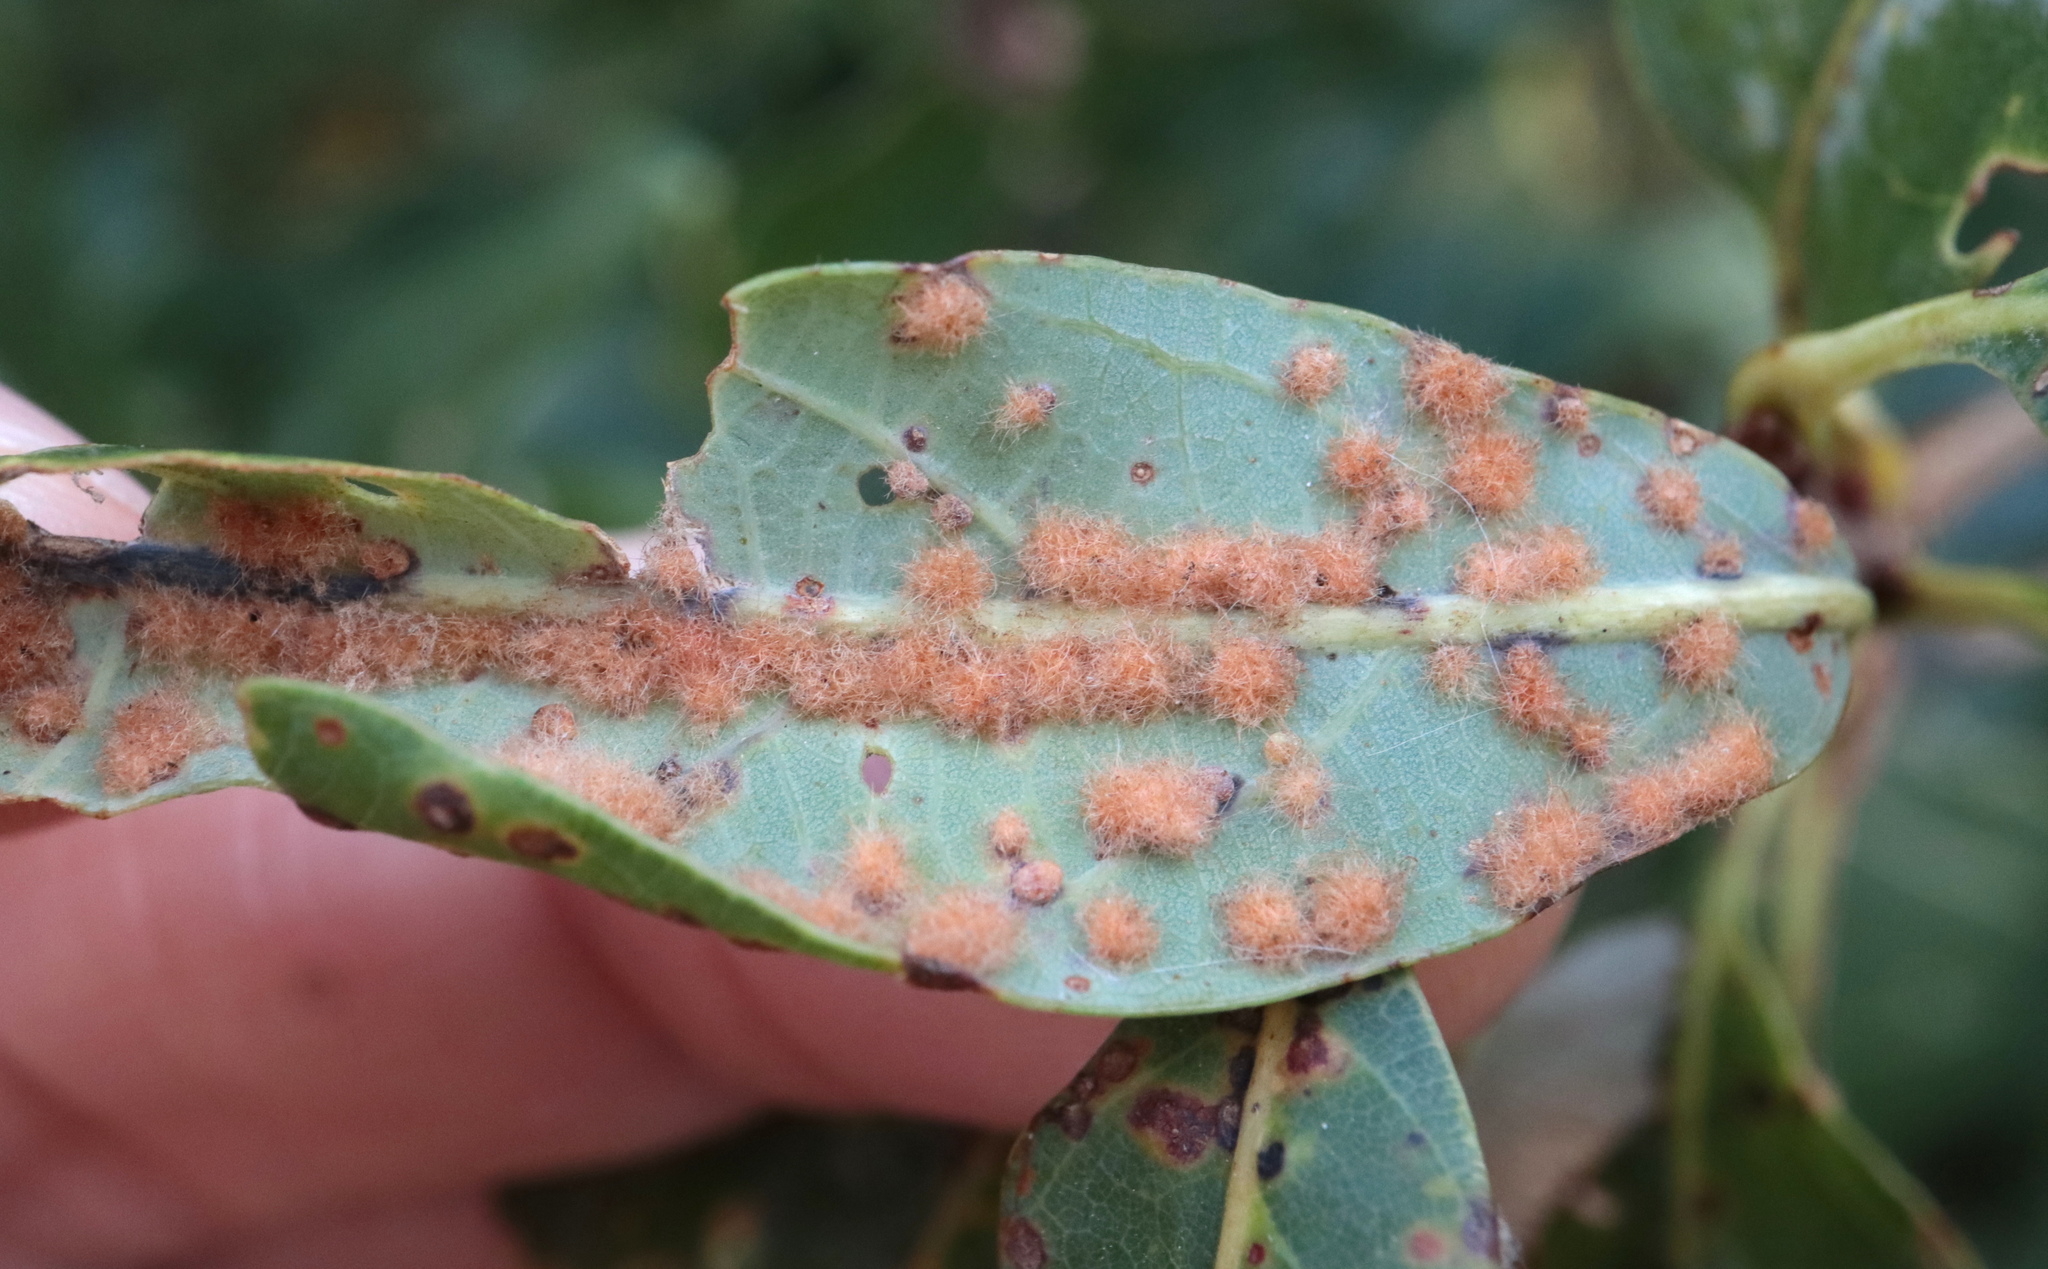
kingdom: Animalia
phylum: Arthropoda
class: Insecta
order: Hymenoptera
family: Cynipidae
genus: Neuroterus
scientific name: Neuroterus quercusverrucarum
